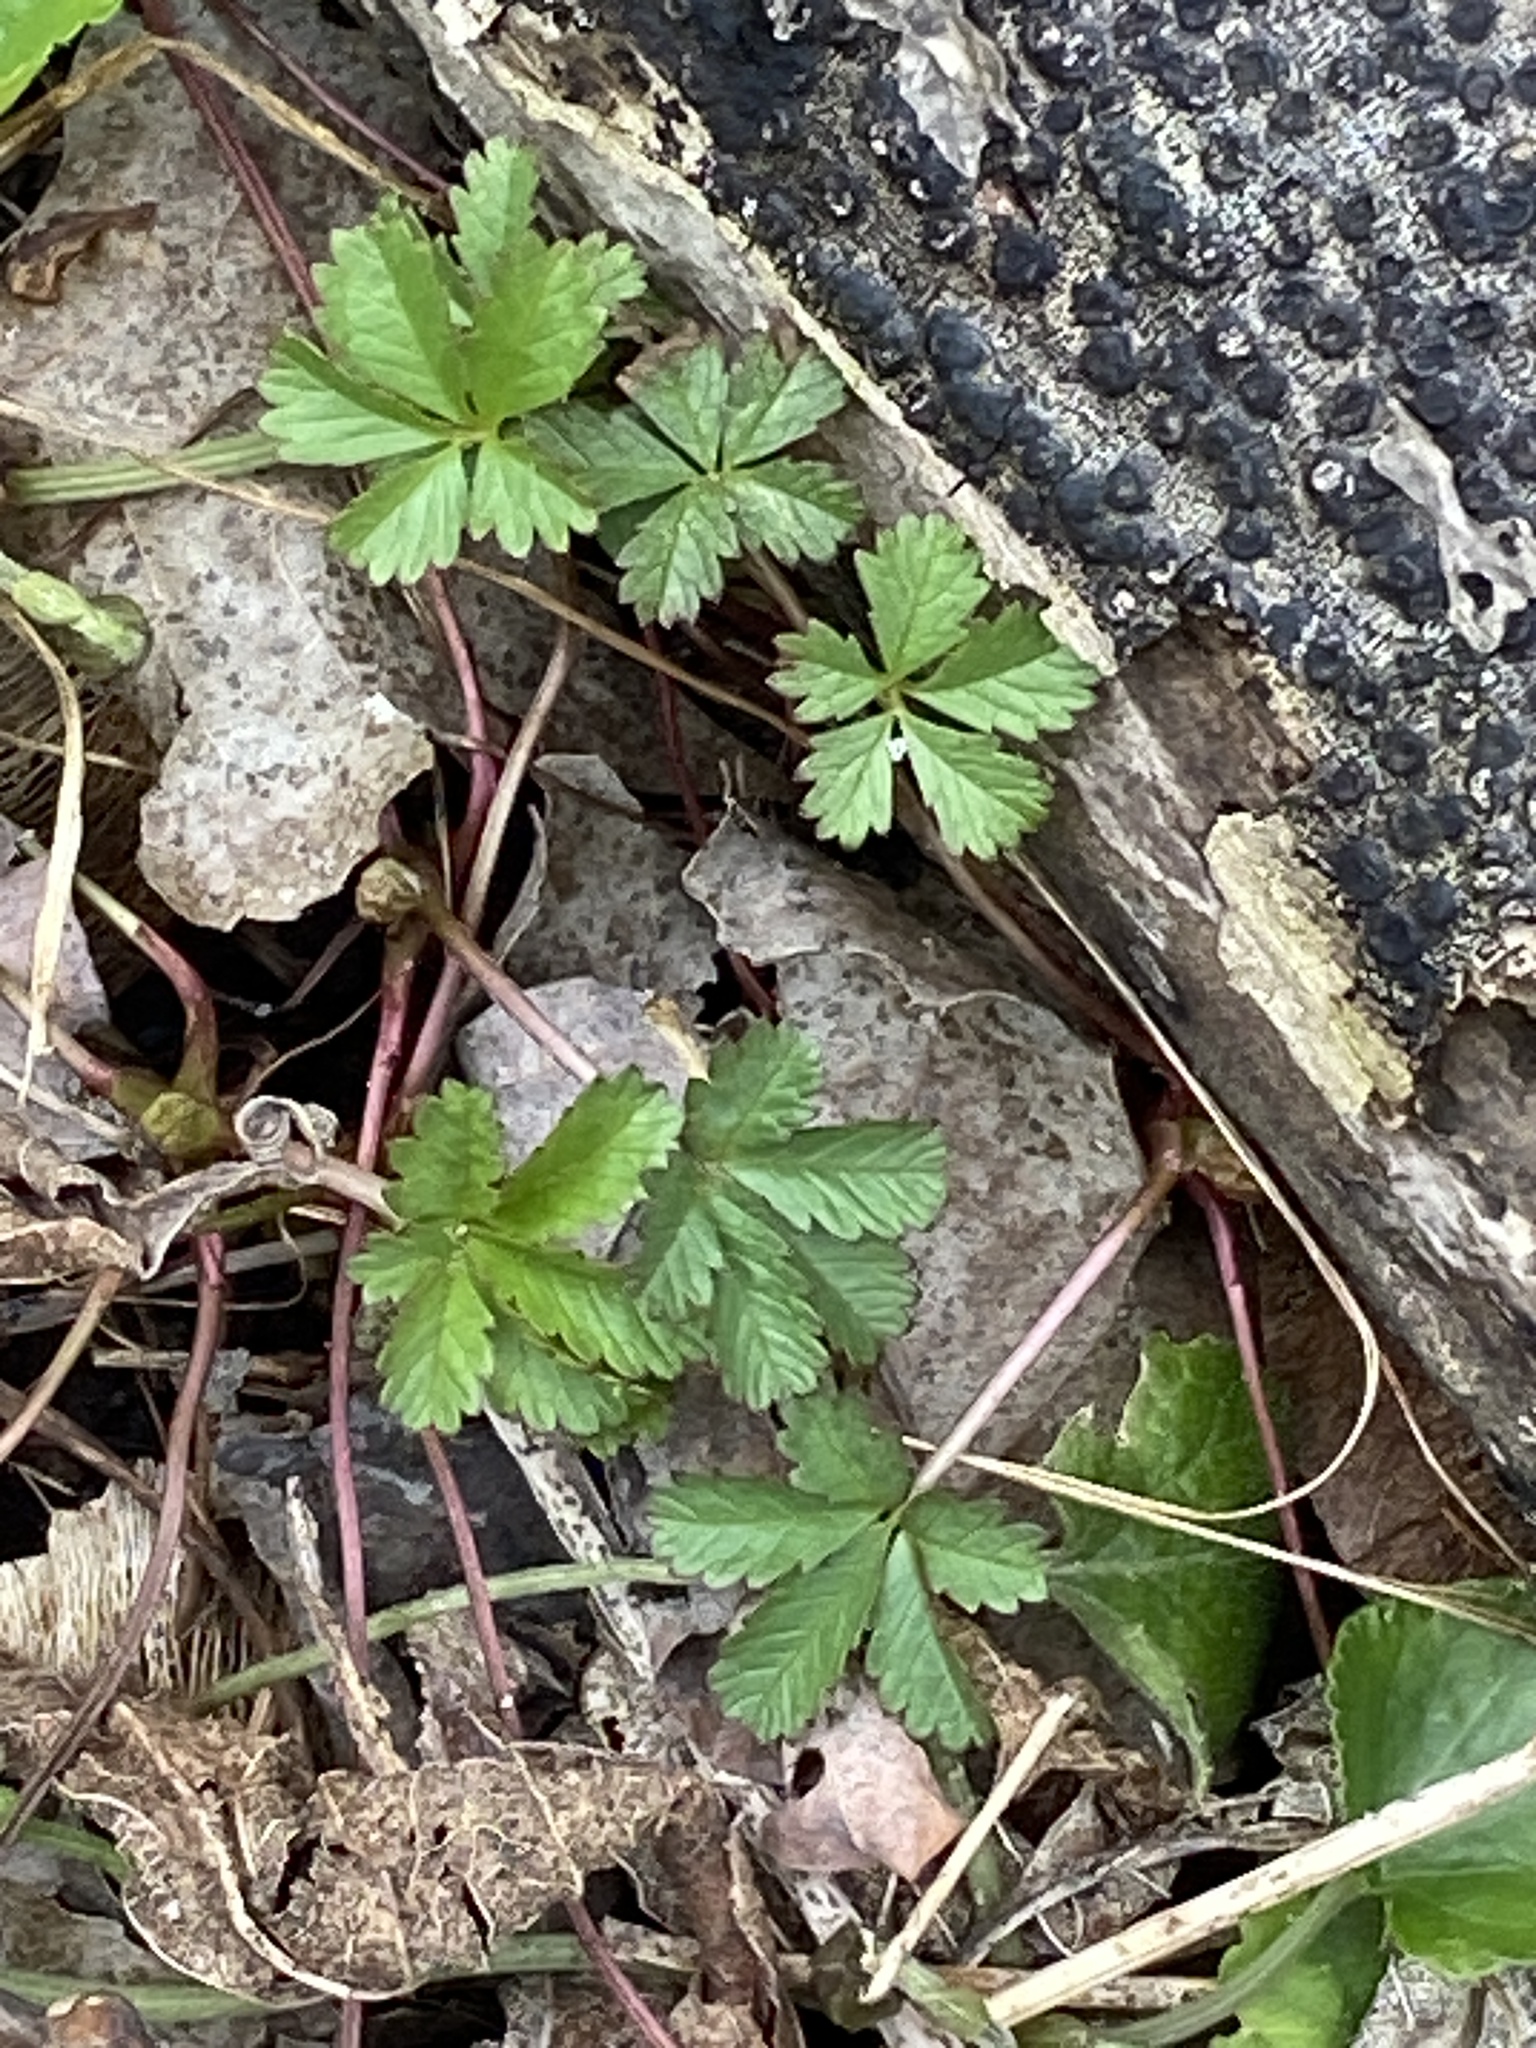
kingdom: Plantae
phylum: Tracheophyta
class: Magnoliopsida
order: Rosales
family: Rosaceae
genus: Potentilla
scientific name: Potentilla reptans
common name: Creeping cinquefoil
